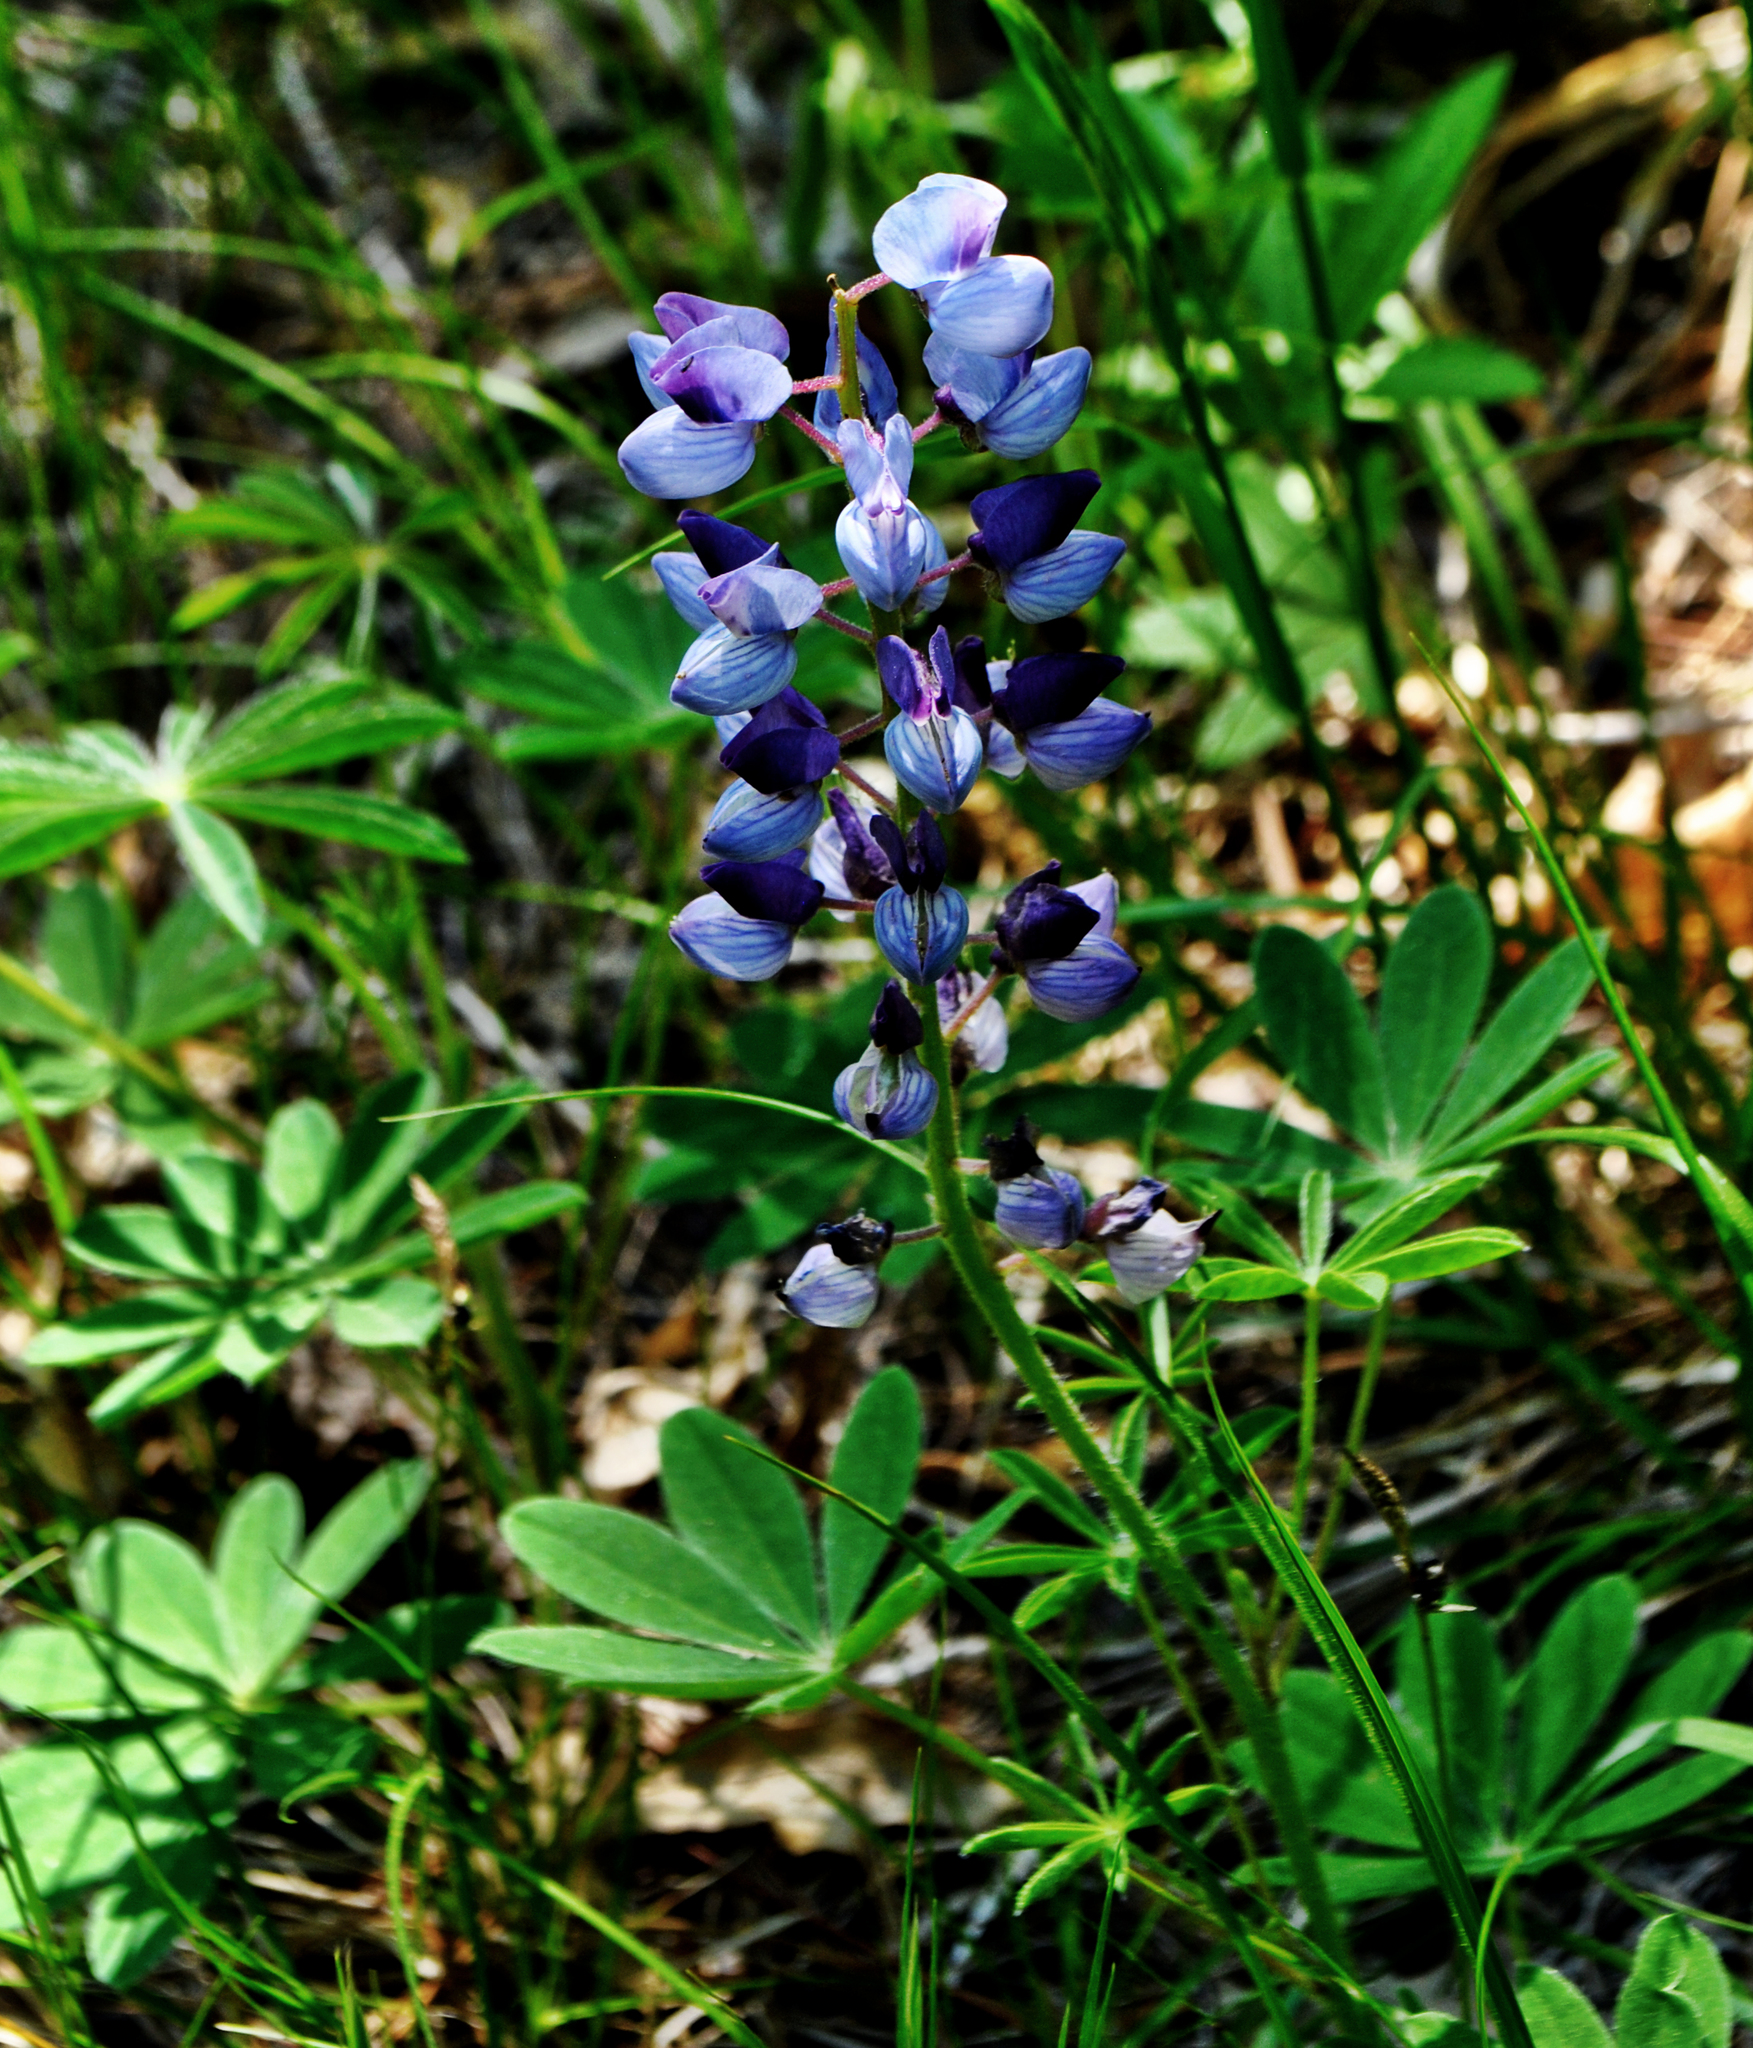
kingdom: Plantae
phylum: Tracheophyta
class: Magnoliopsida
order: Fabales
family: Fabaceae
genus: Lupinus
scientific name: Lupinus perennis
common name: Sundial lupine
